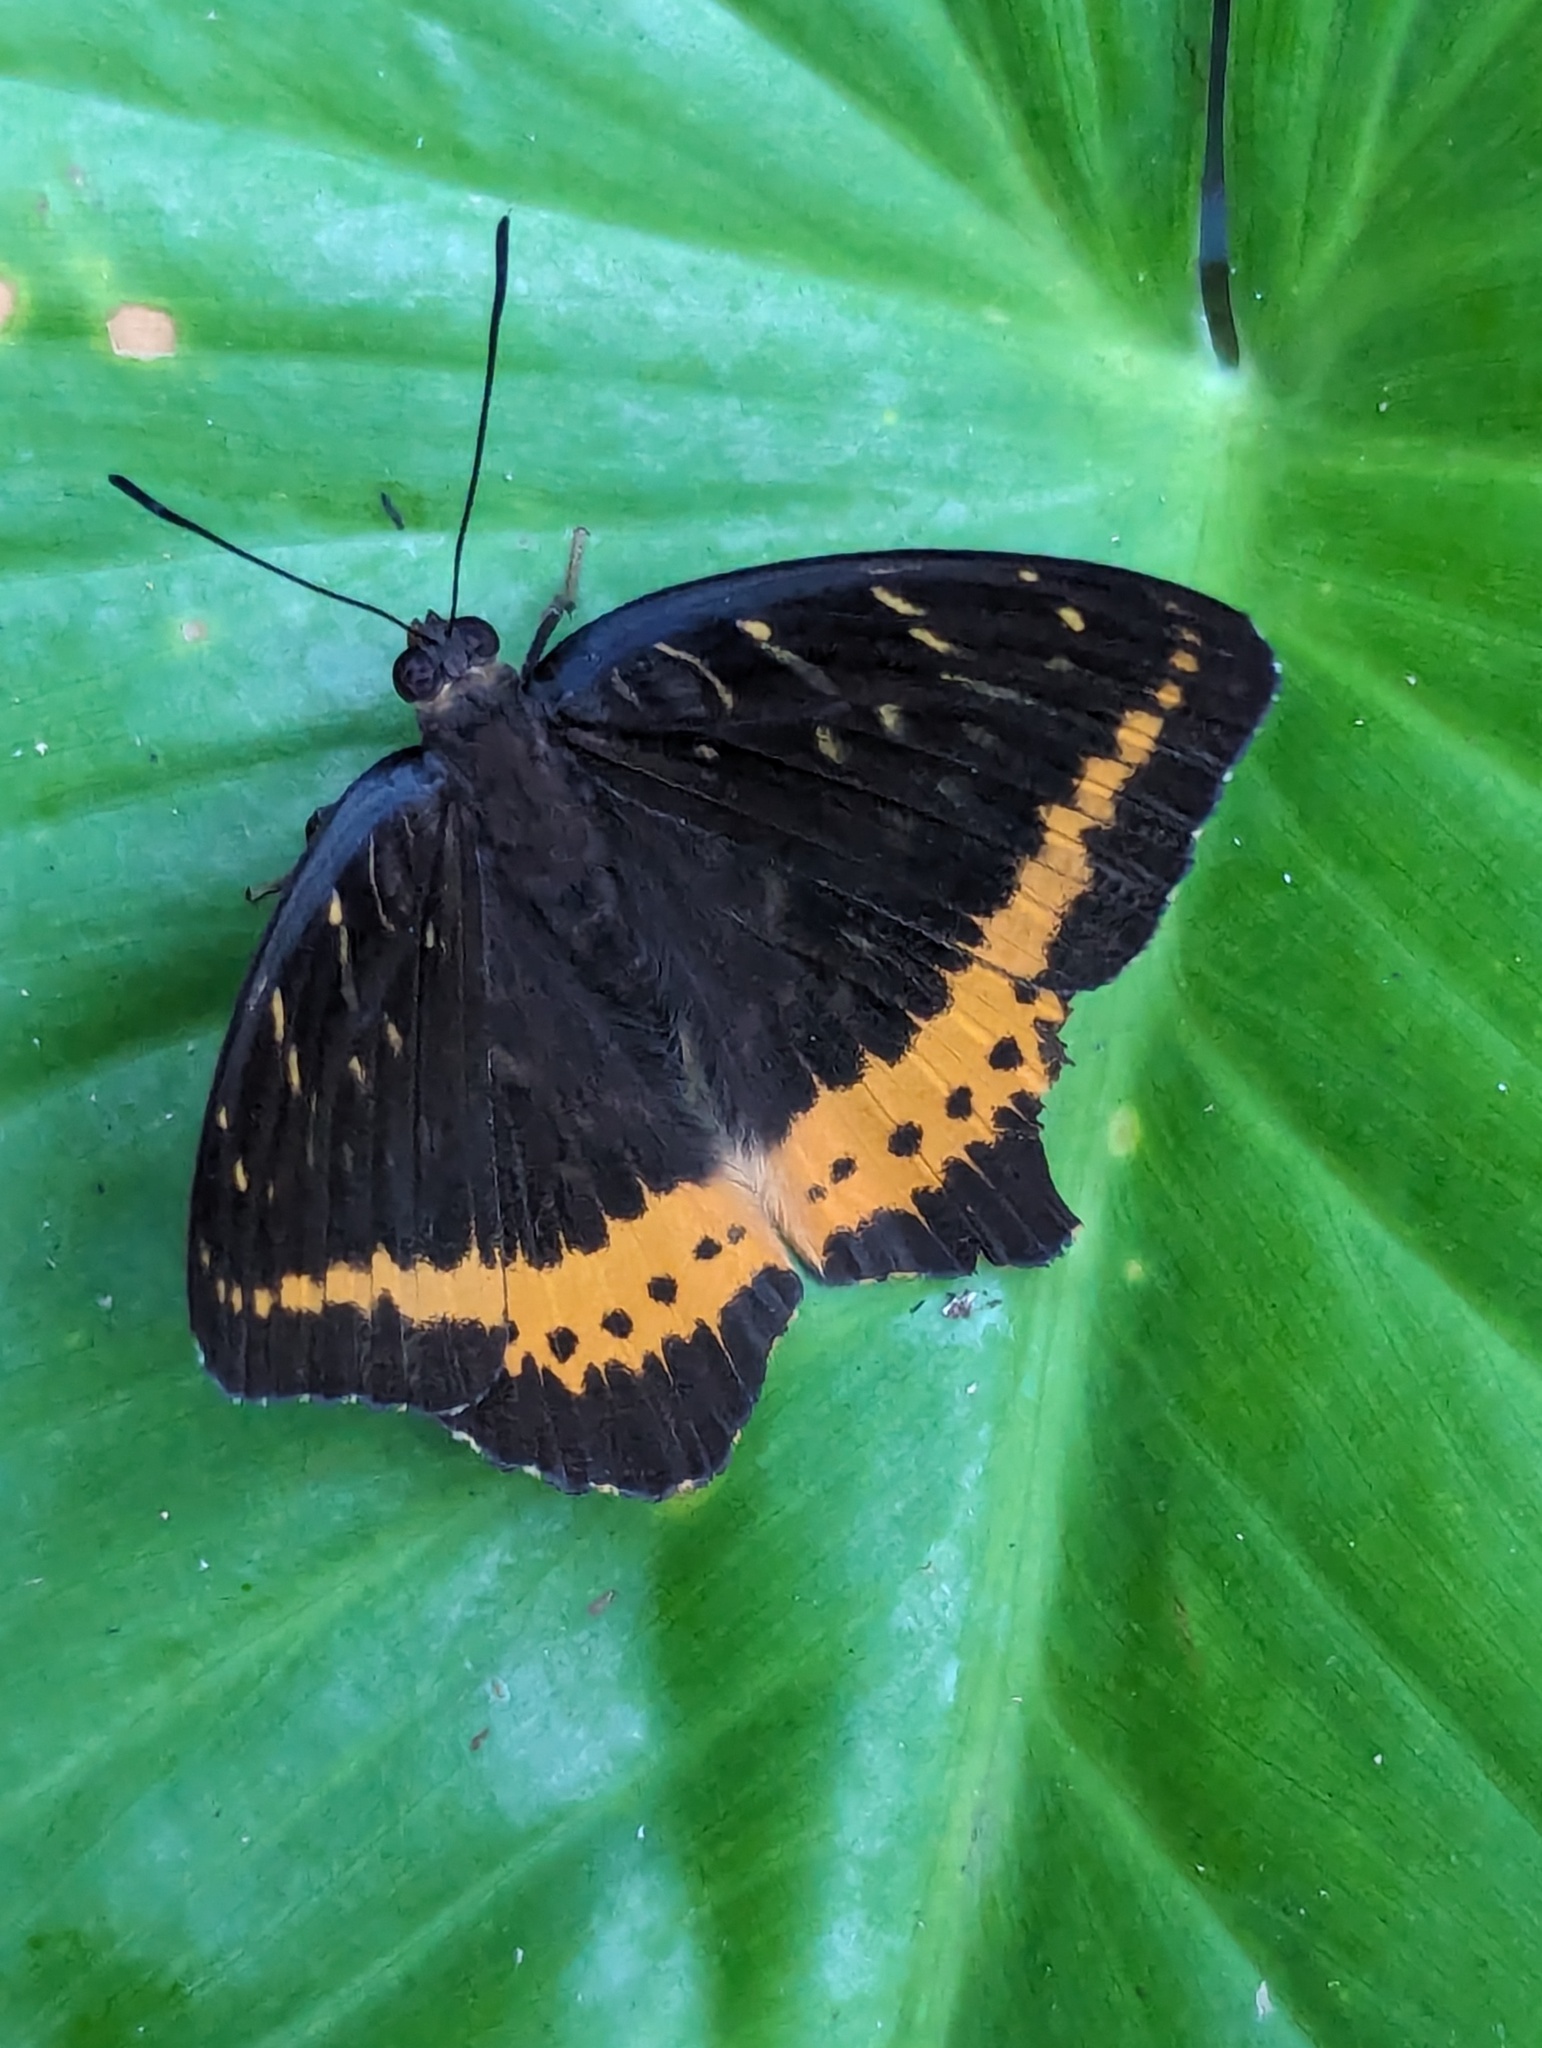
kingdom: Animalia
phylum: Arthropoda
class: Insecta
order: Lepidoptera
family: Nymphalidae
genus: Lexias
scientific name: Lexias panopus
